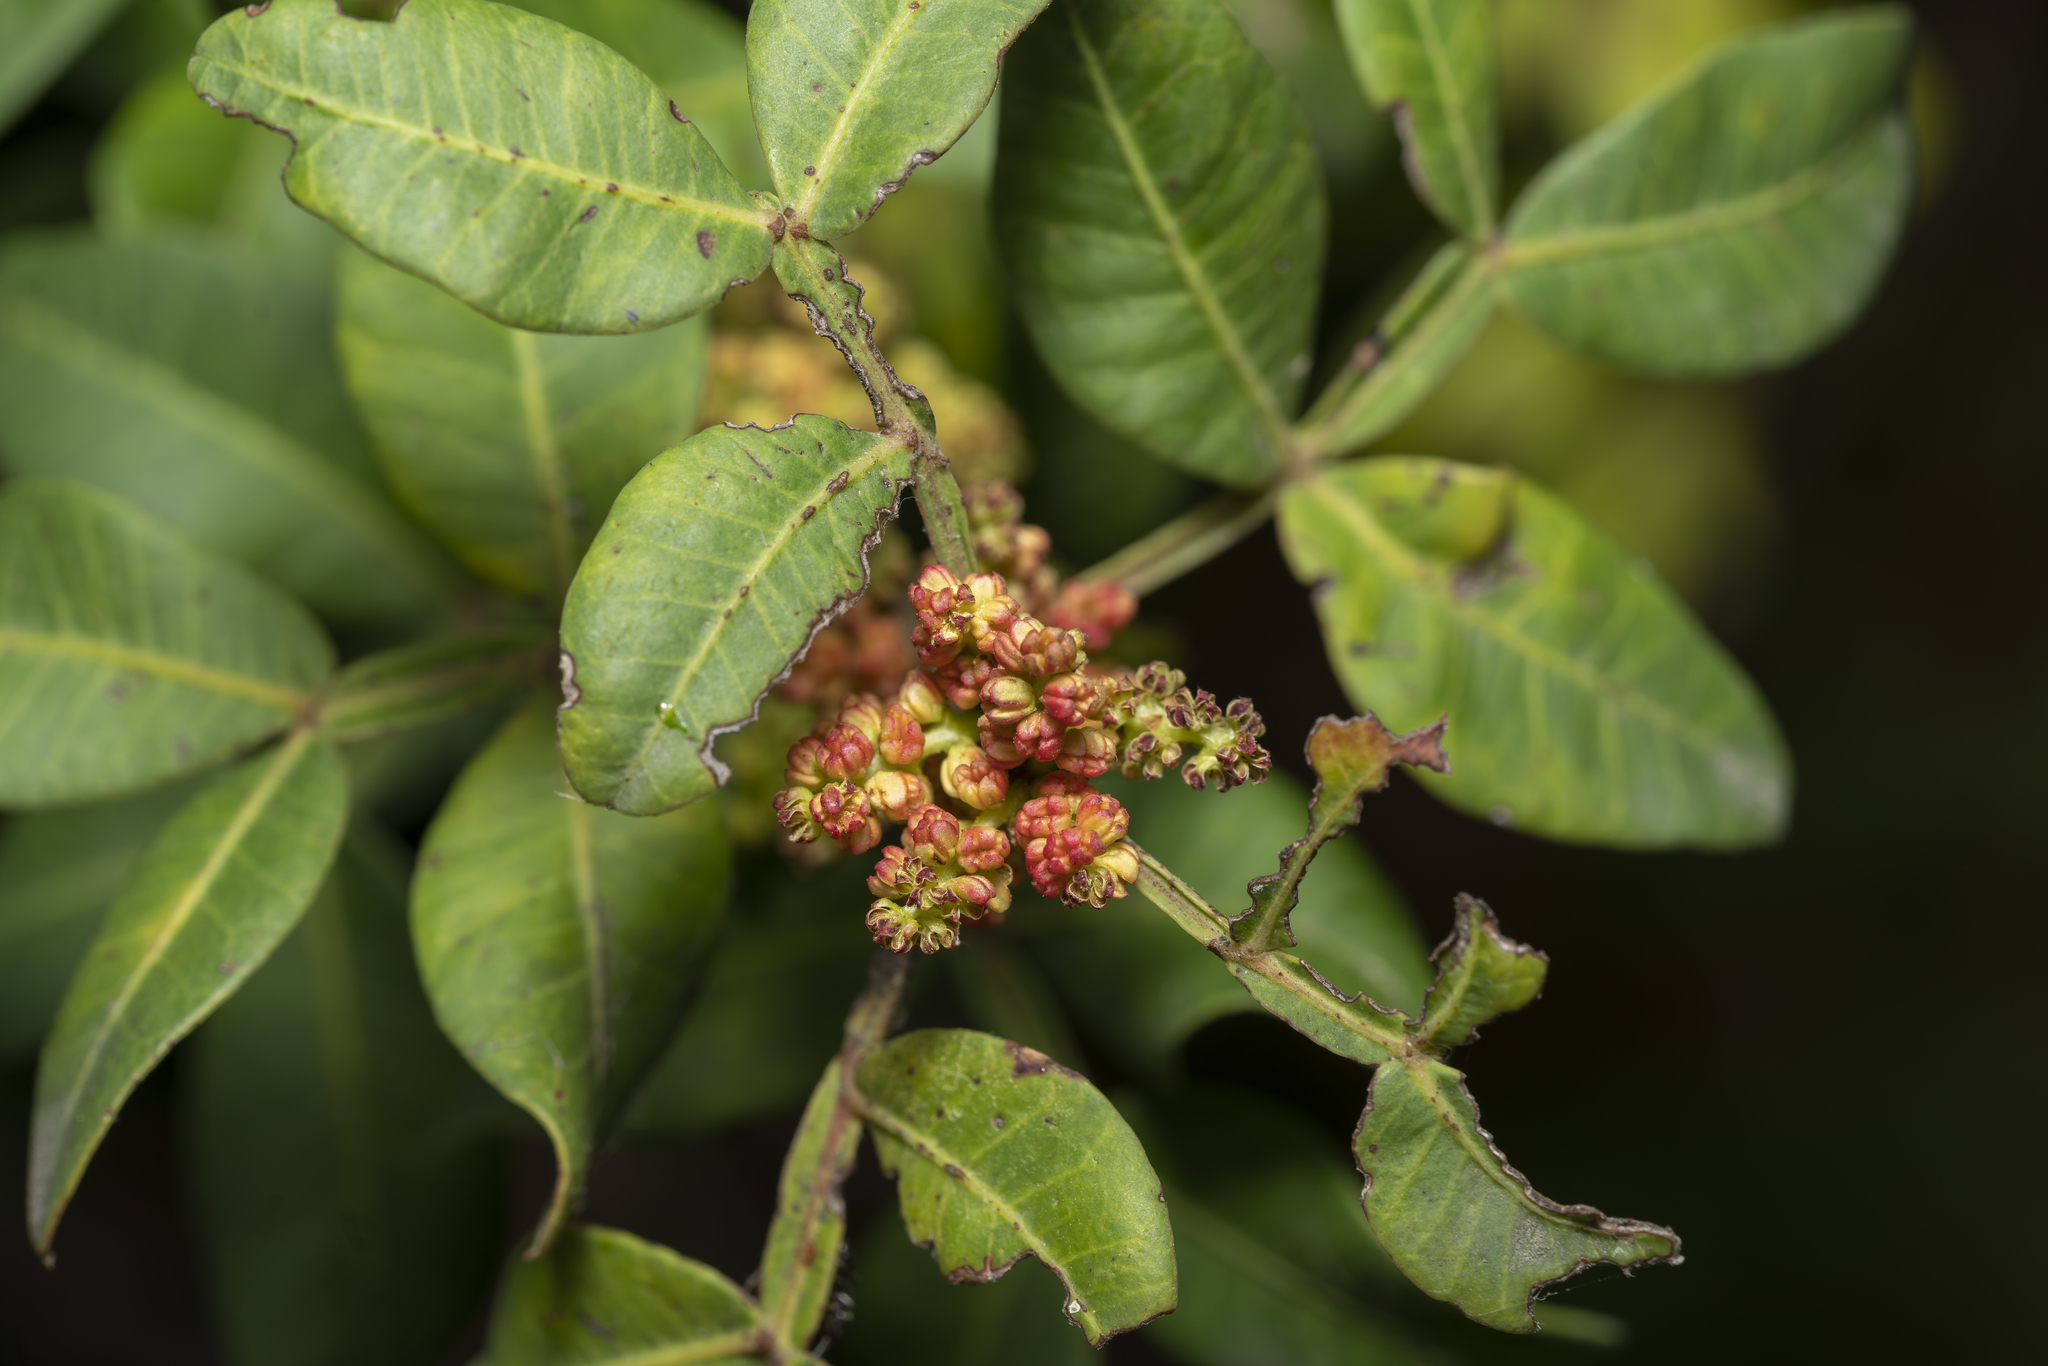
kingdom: Plantae
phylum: Tracheophyta
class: Magnoliopsida
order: Sapindales
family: Anacardiaceae
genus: Pistacia
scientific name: Pistacia lentiscus
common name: Lentisk
